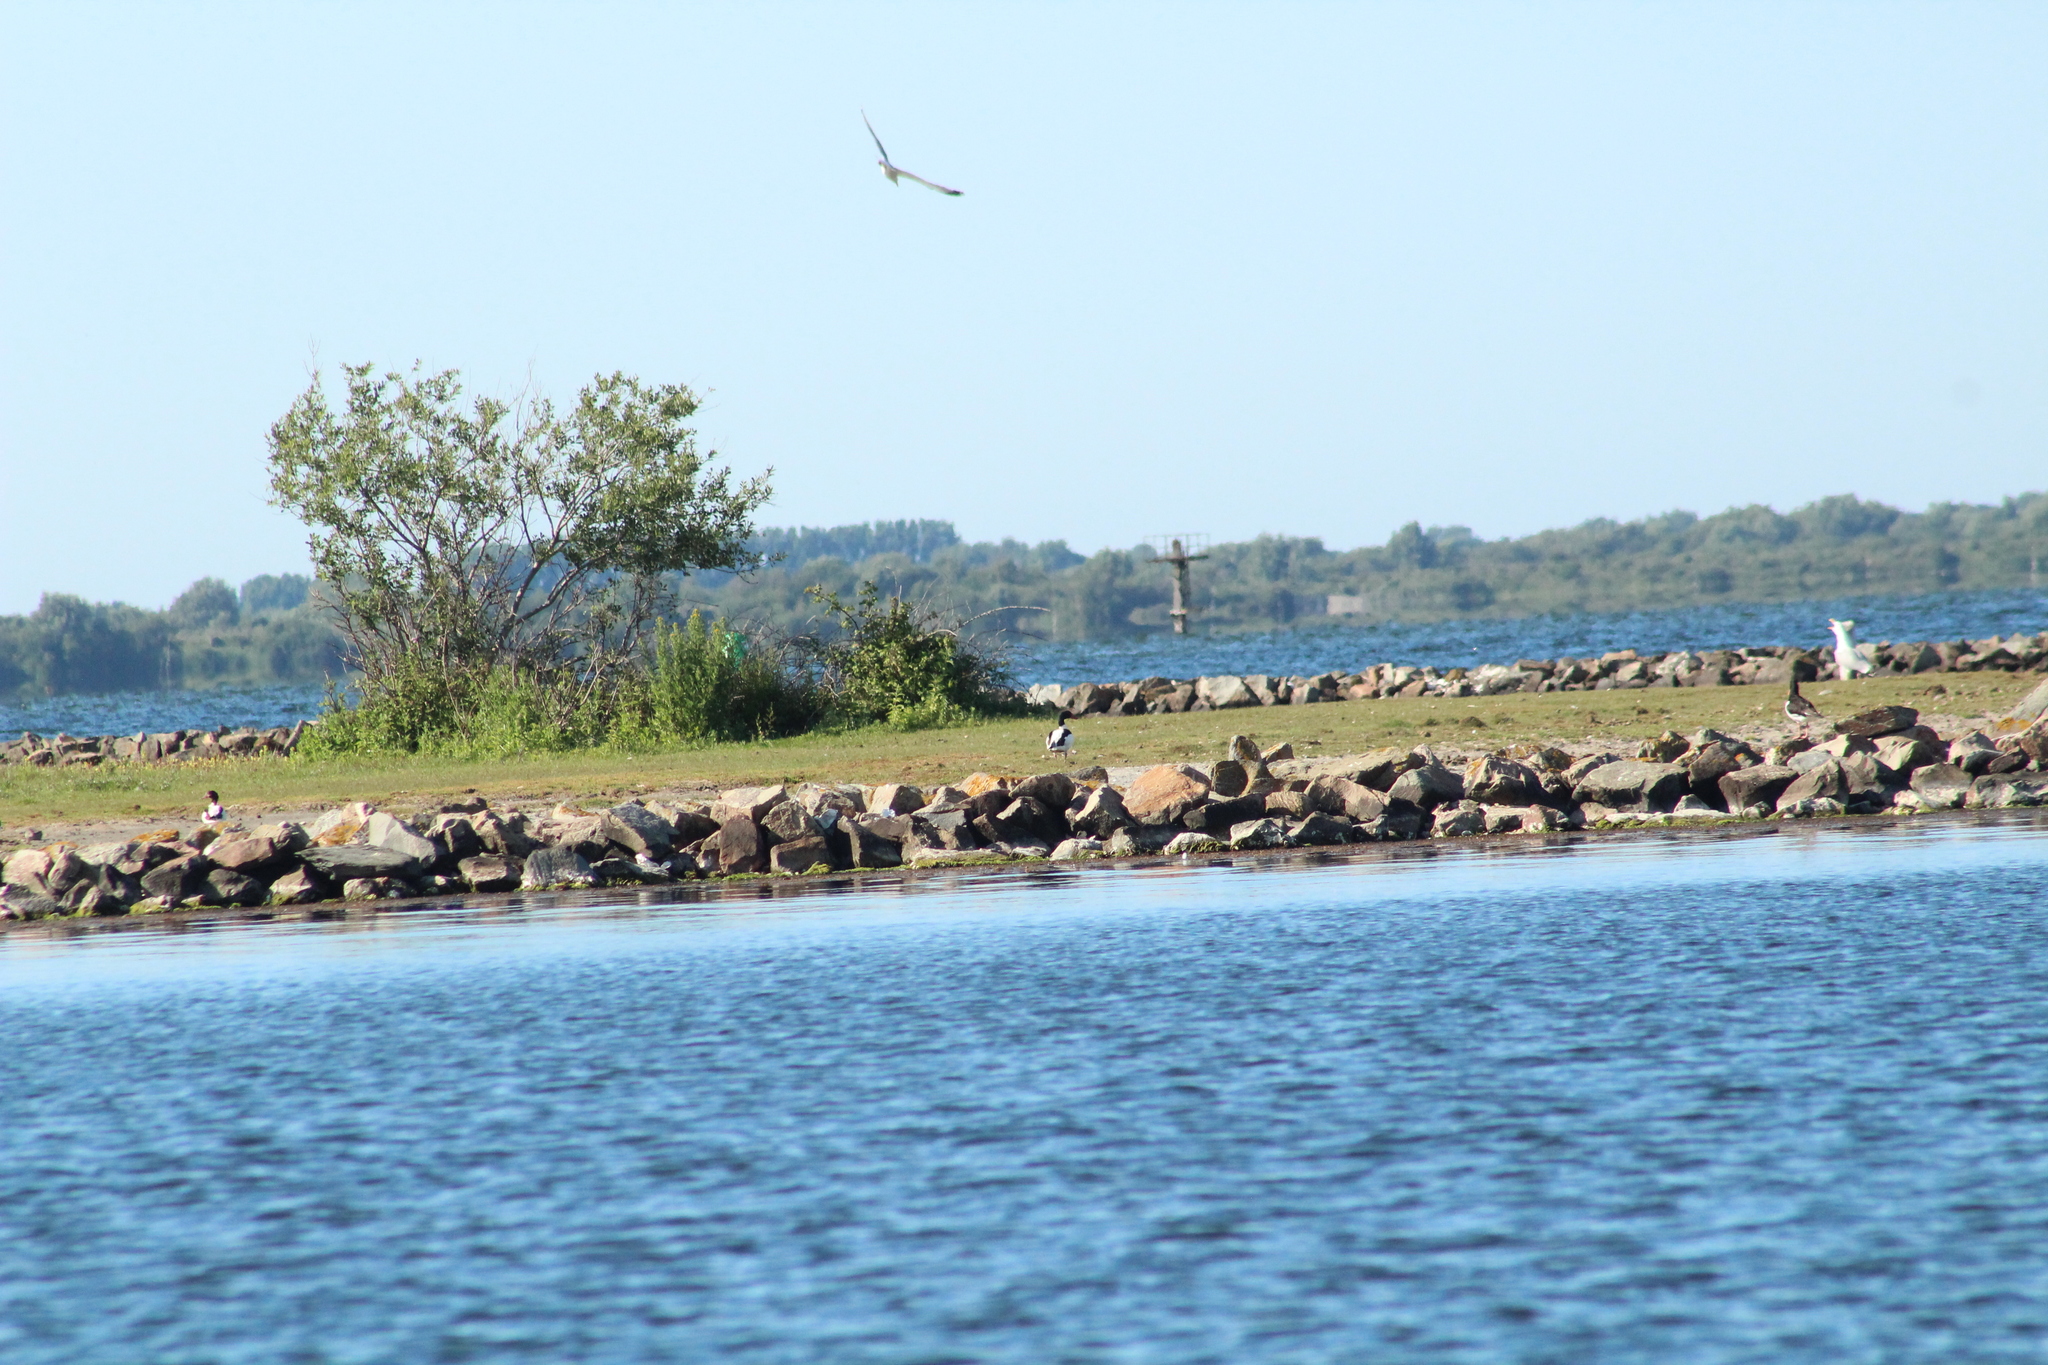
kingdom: Animalia
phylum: Chordata
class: Aves
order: Anseriformes
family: Anatidae
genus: Tadorna
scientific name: Tadorna tadorna
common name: Common shelduck
